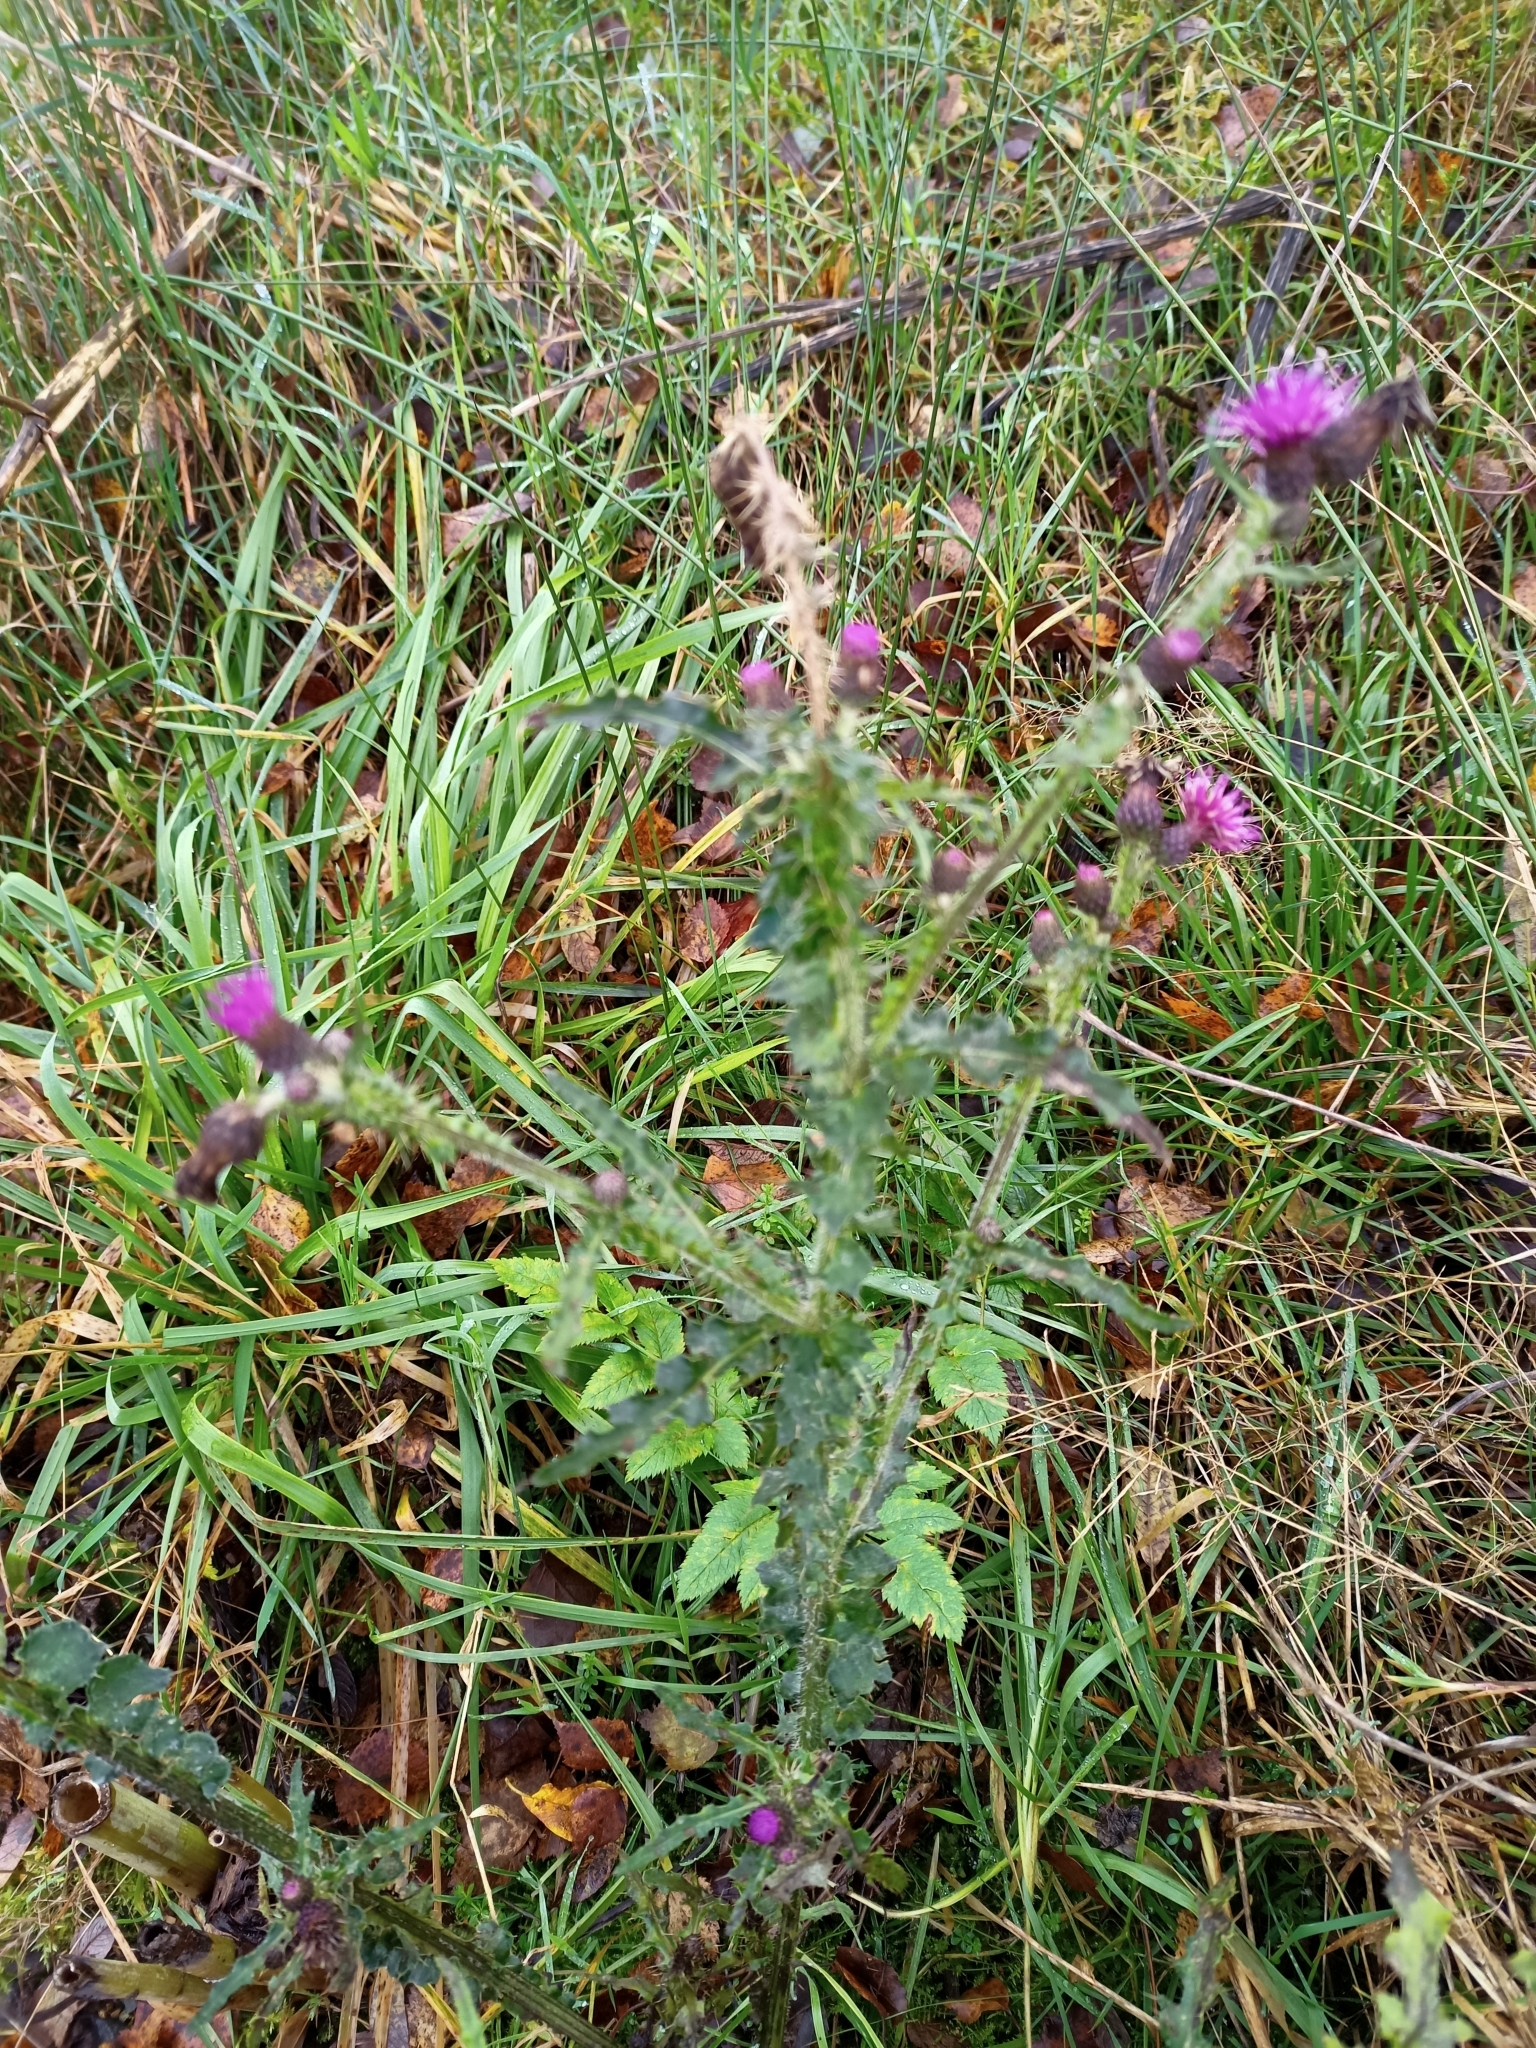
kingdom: Plantae
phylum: Tracheophyta
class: Magnoliopsida
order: Asterales
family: Asteraceae
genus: Cirsium
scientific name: Cirsium palustre
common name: Marsh thistle
